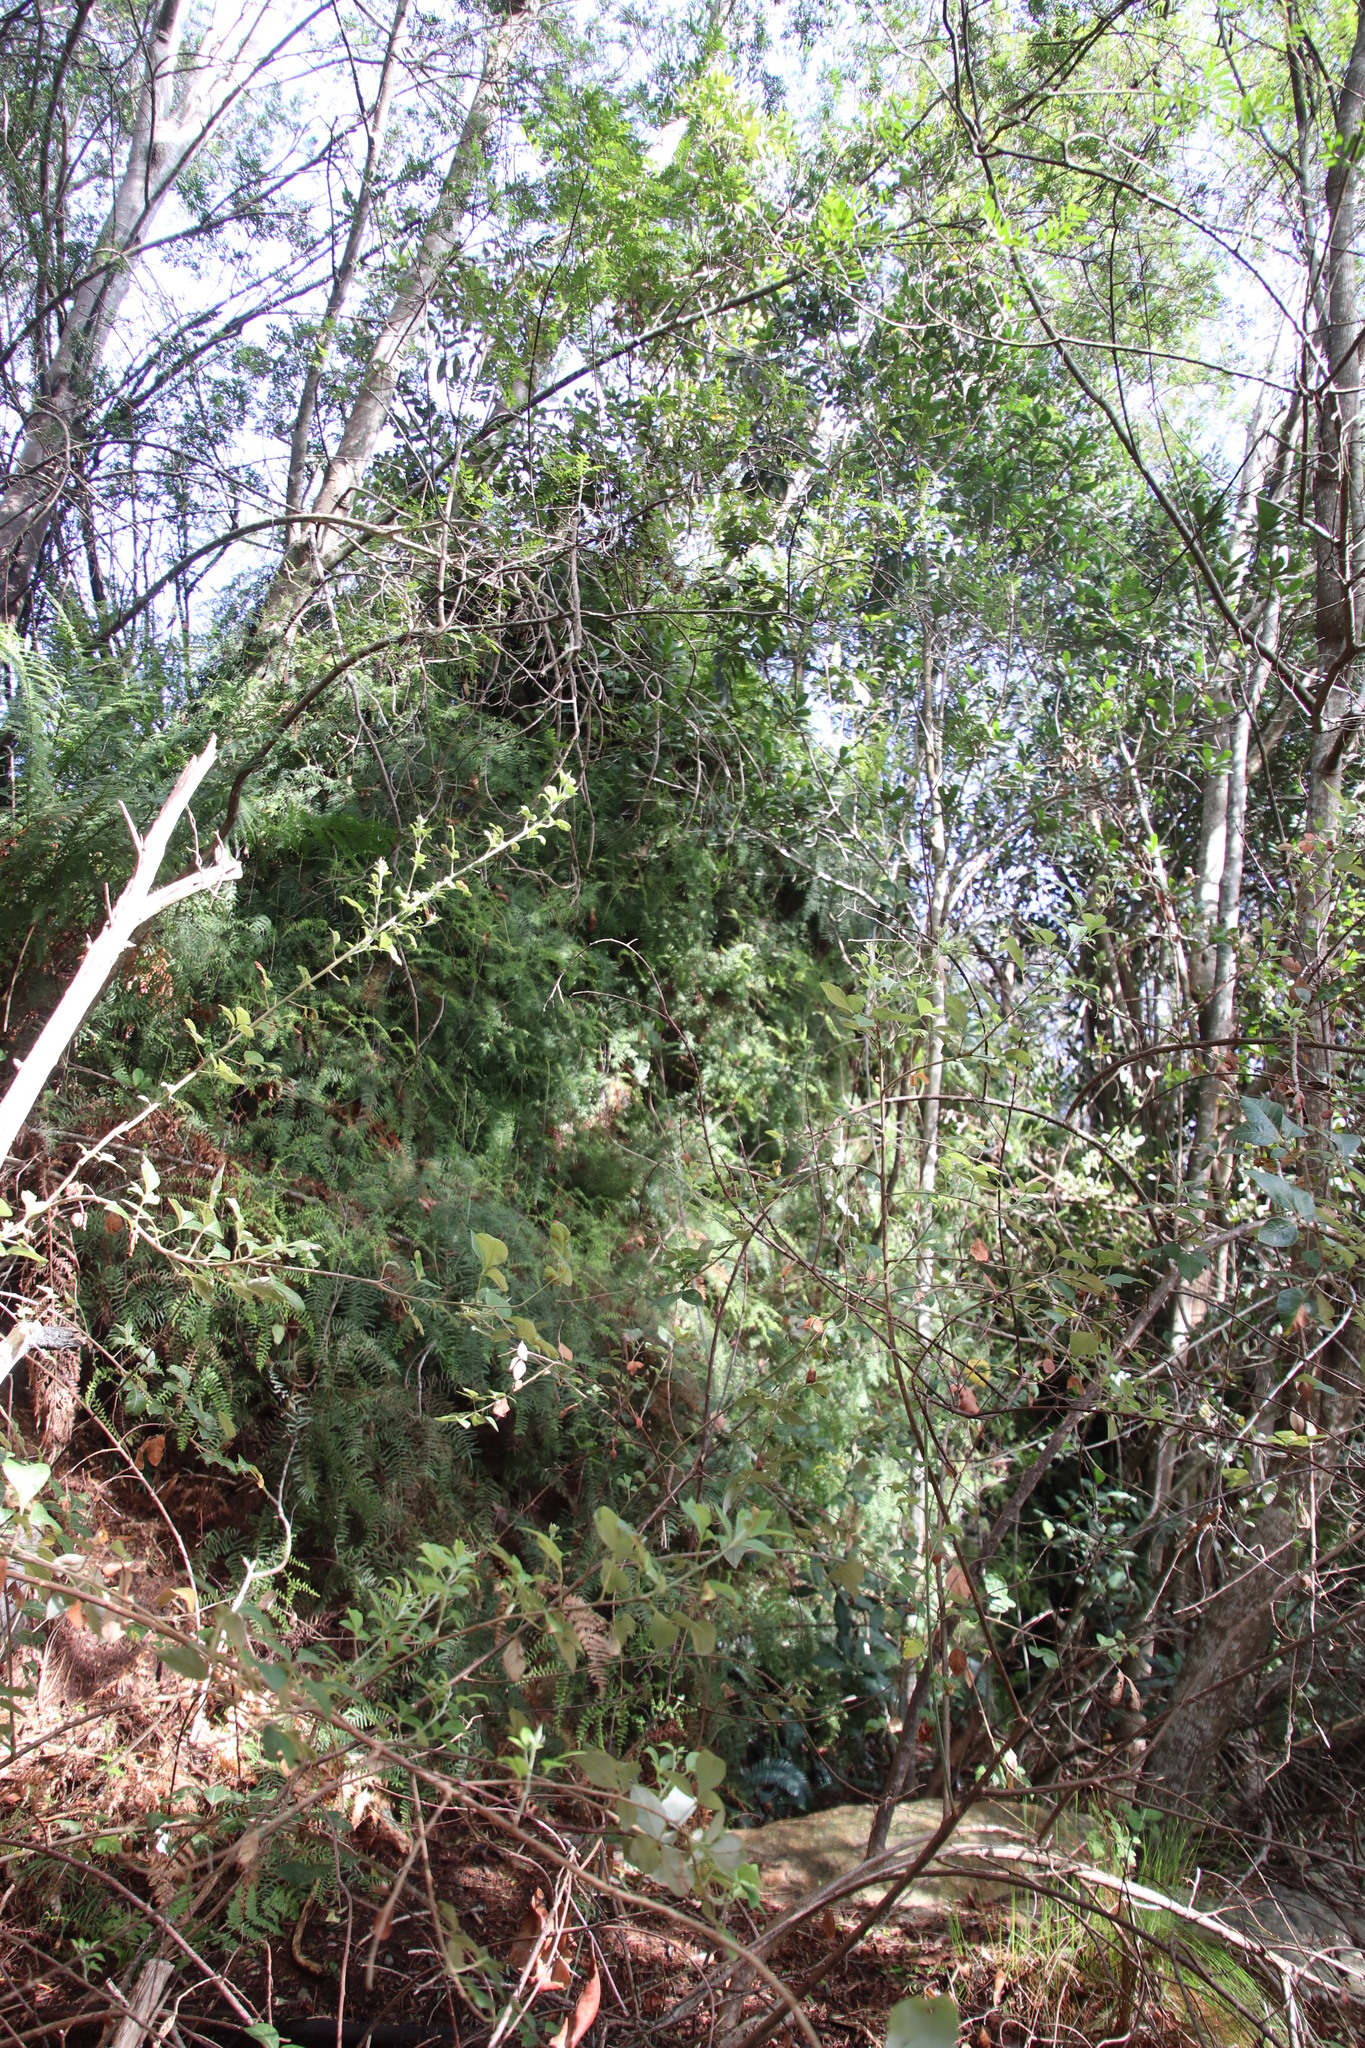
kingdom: Plantae
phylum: Tracheophyta
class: Polypodiopsida
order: Gleicheniales
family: Gleicheniaceae
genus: Gleichenia
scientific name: Gleichenia polypodioides
